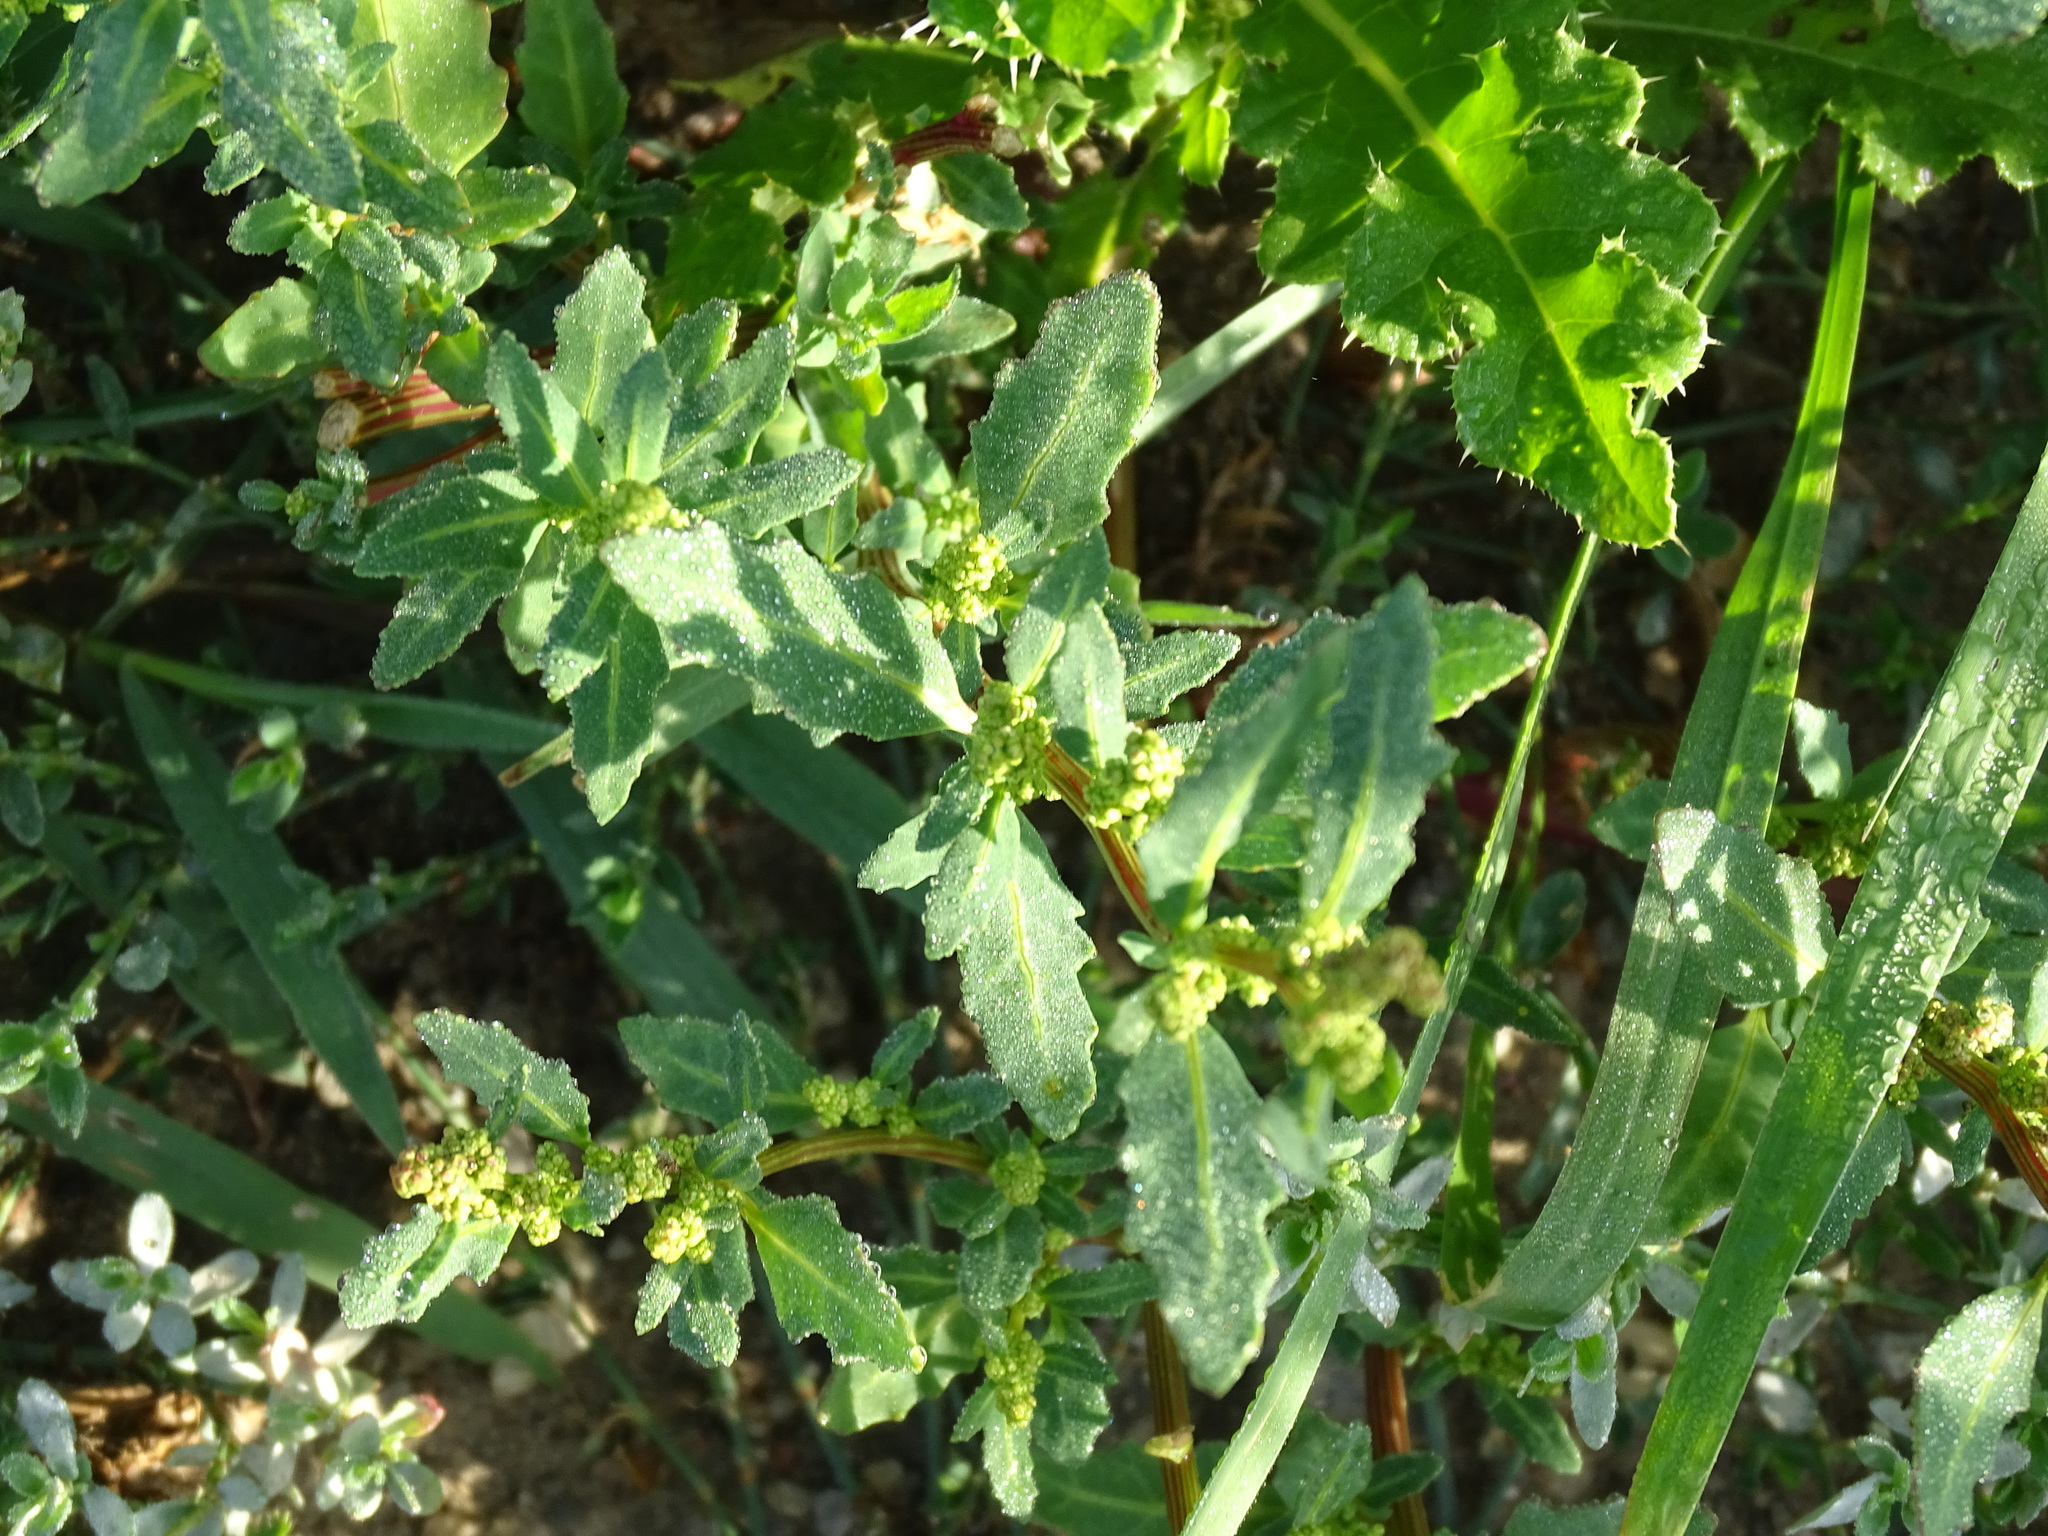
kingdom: Plantae
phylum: Tracheophyta
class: Magnoliopsida
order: Caryophyllales
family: Amaranthaceae
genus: Oxybasis
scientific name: Oxybasis glauca
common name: Glaucous goosefoot
